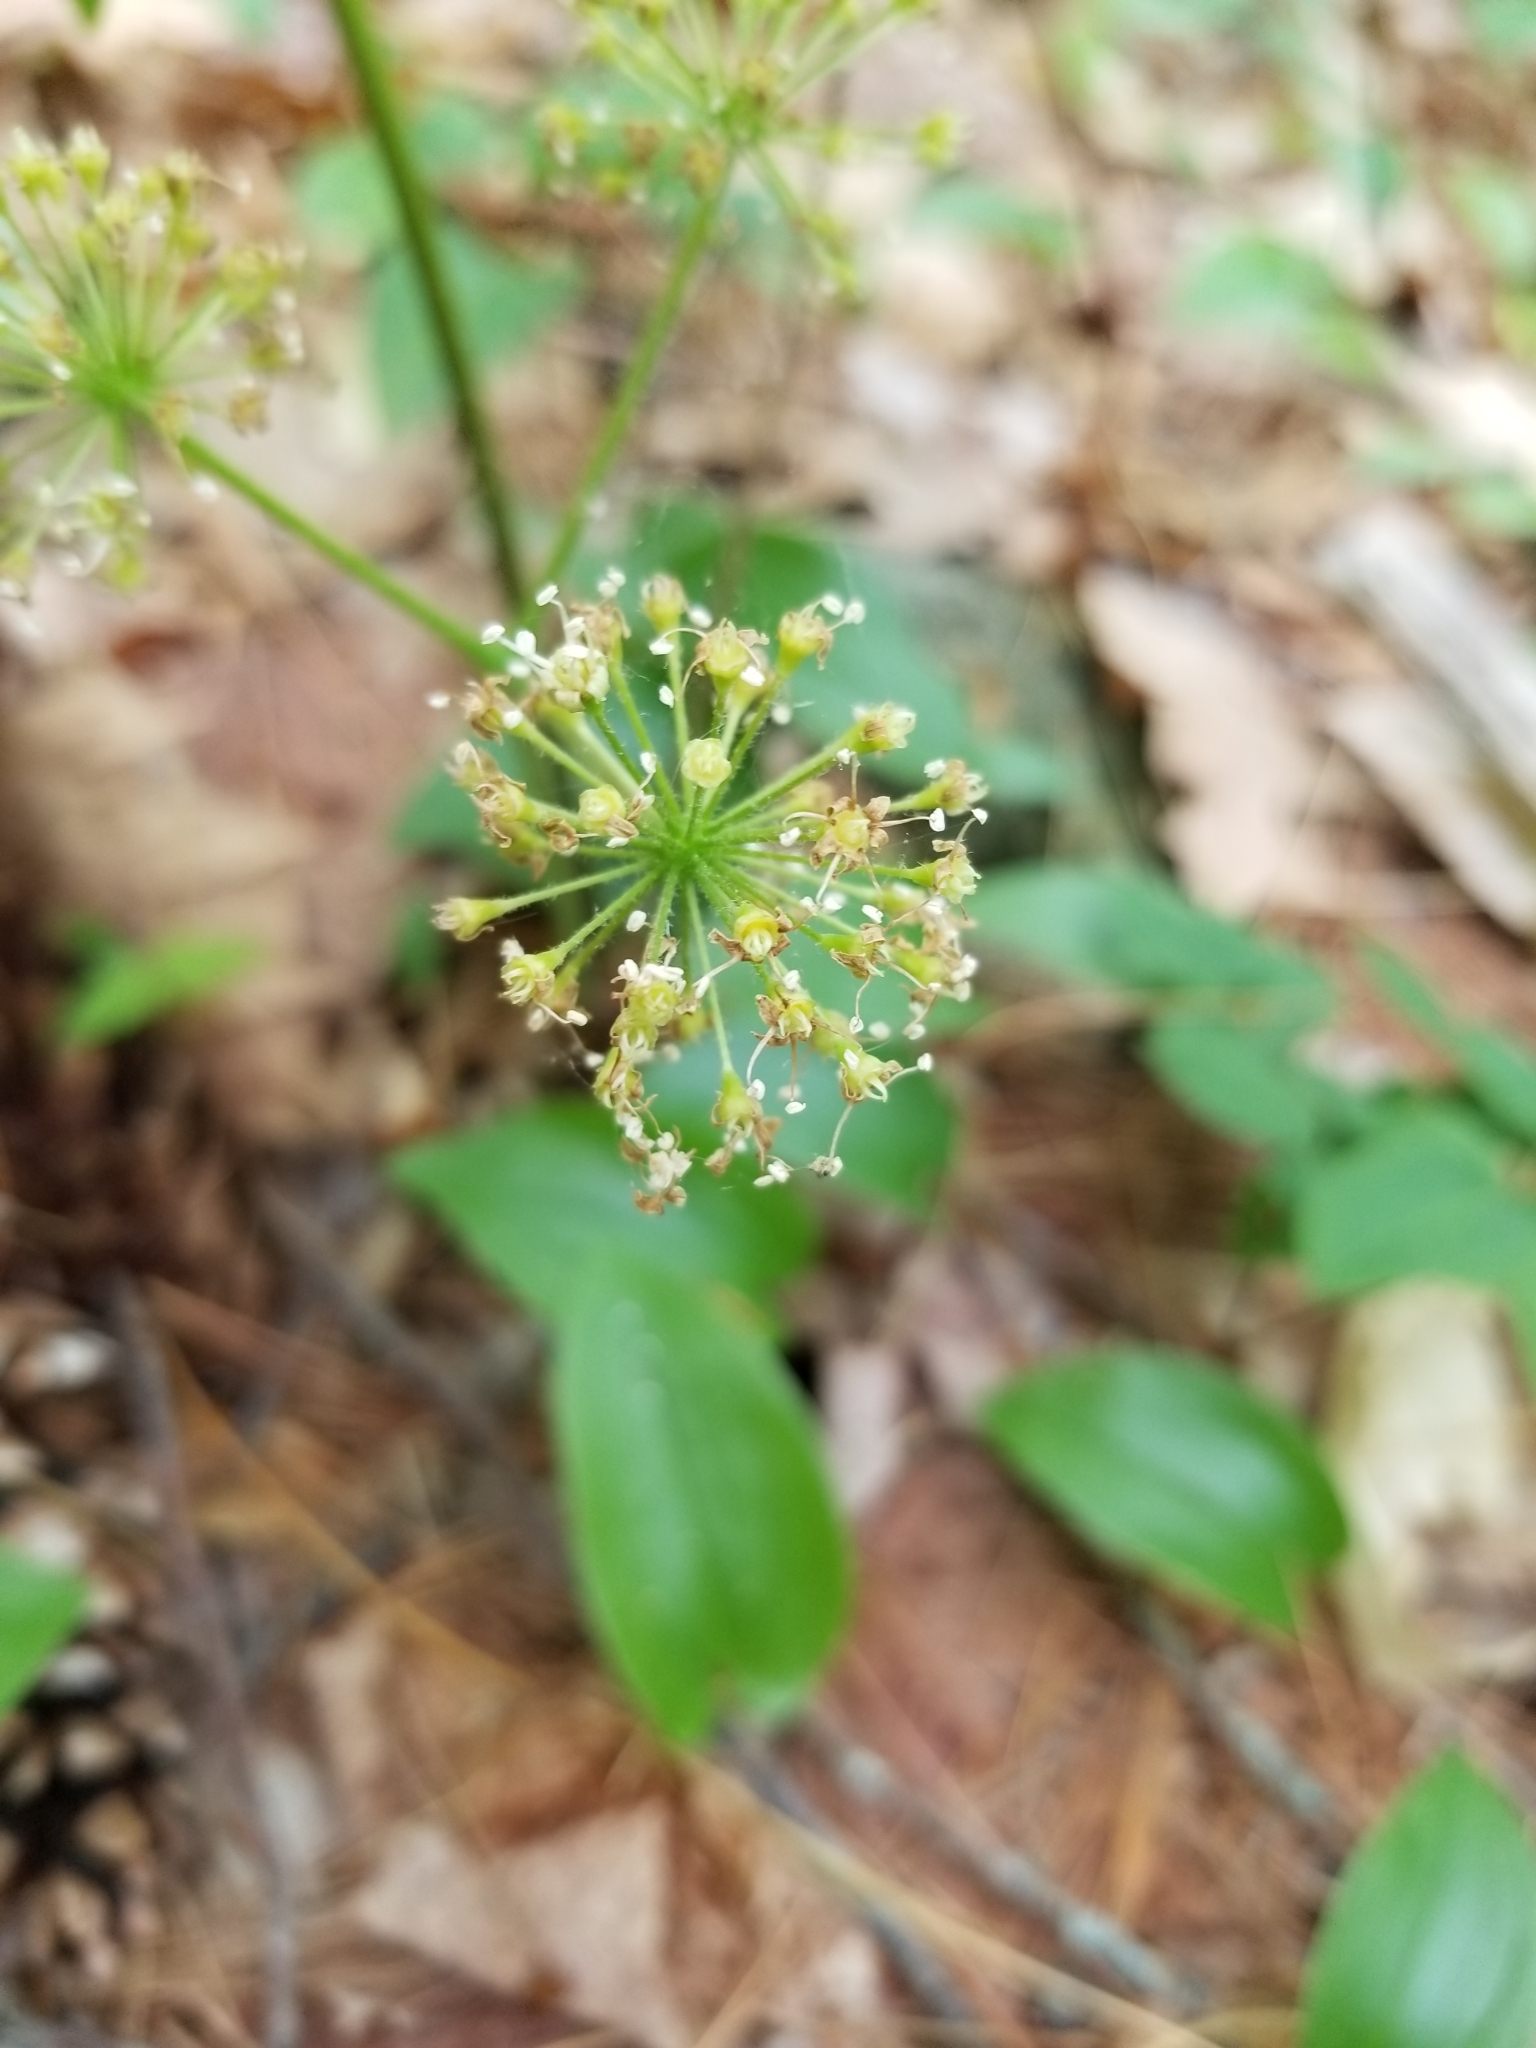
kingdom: Plantae
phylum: Tracheophyta
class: Magnoliopsida
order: Apiales
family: Araliaceae
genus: Aralia
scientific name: Aralia nudicaulis
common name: Wild sarsaparilla
